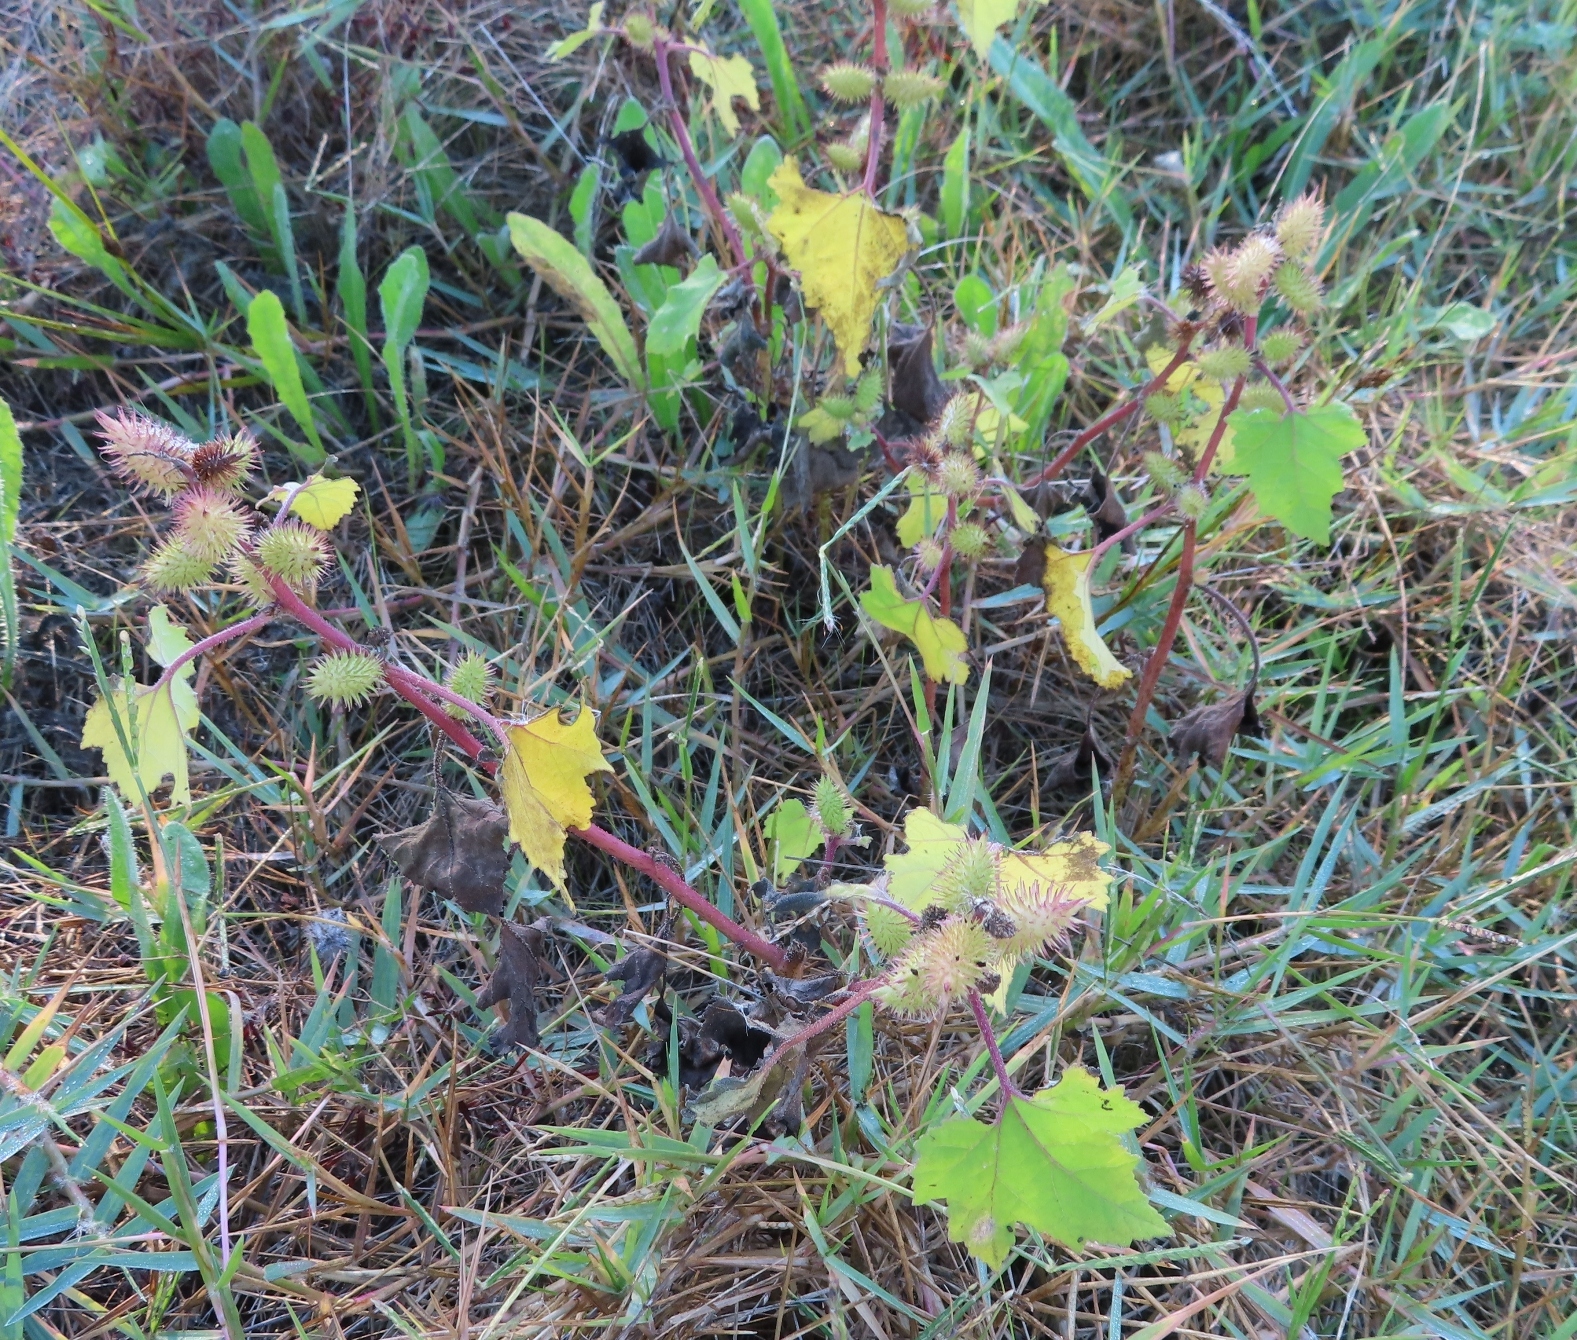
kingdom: Plantae
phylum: Tracheophyta
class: Magnoliopsida
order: Asterales
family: Asteraceae
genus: Xanthium
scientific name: Xanthium strumarium
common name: Rough cocklebur
